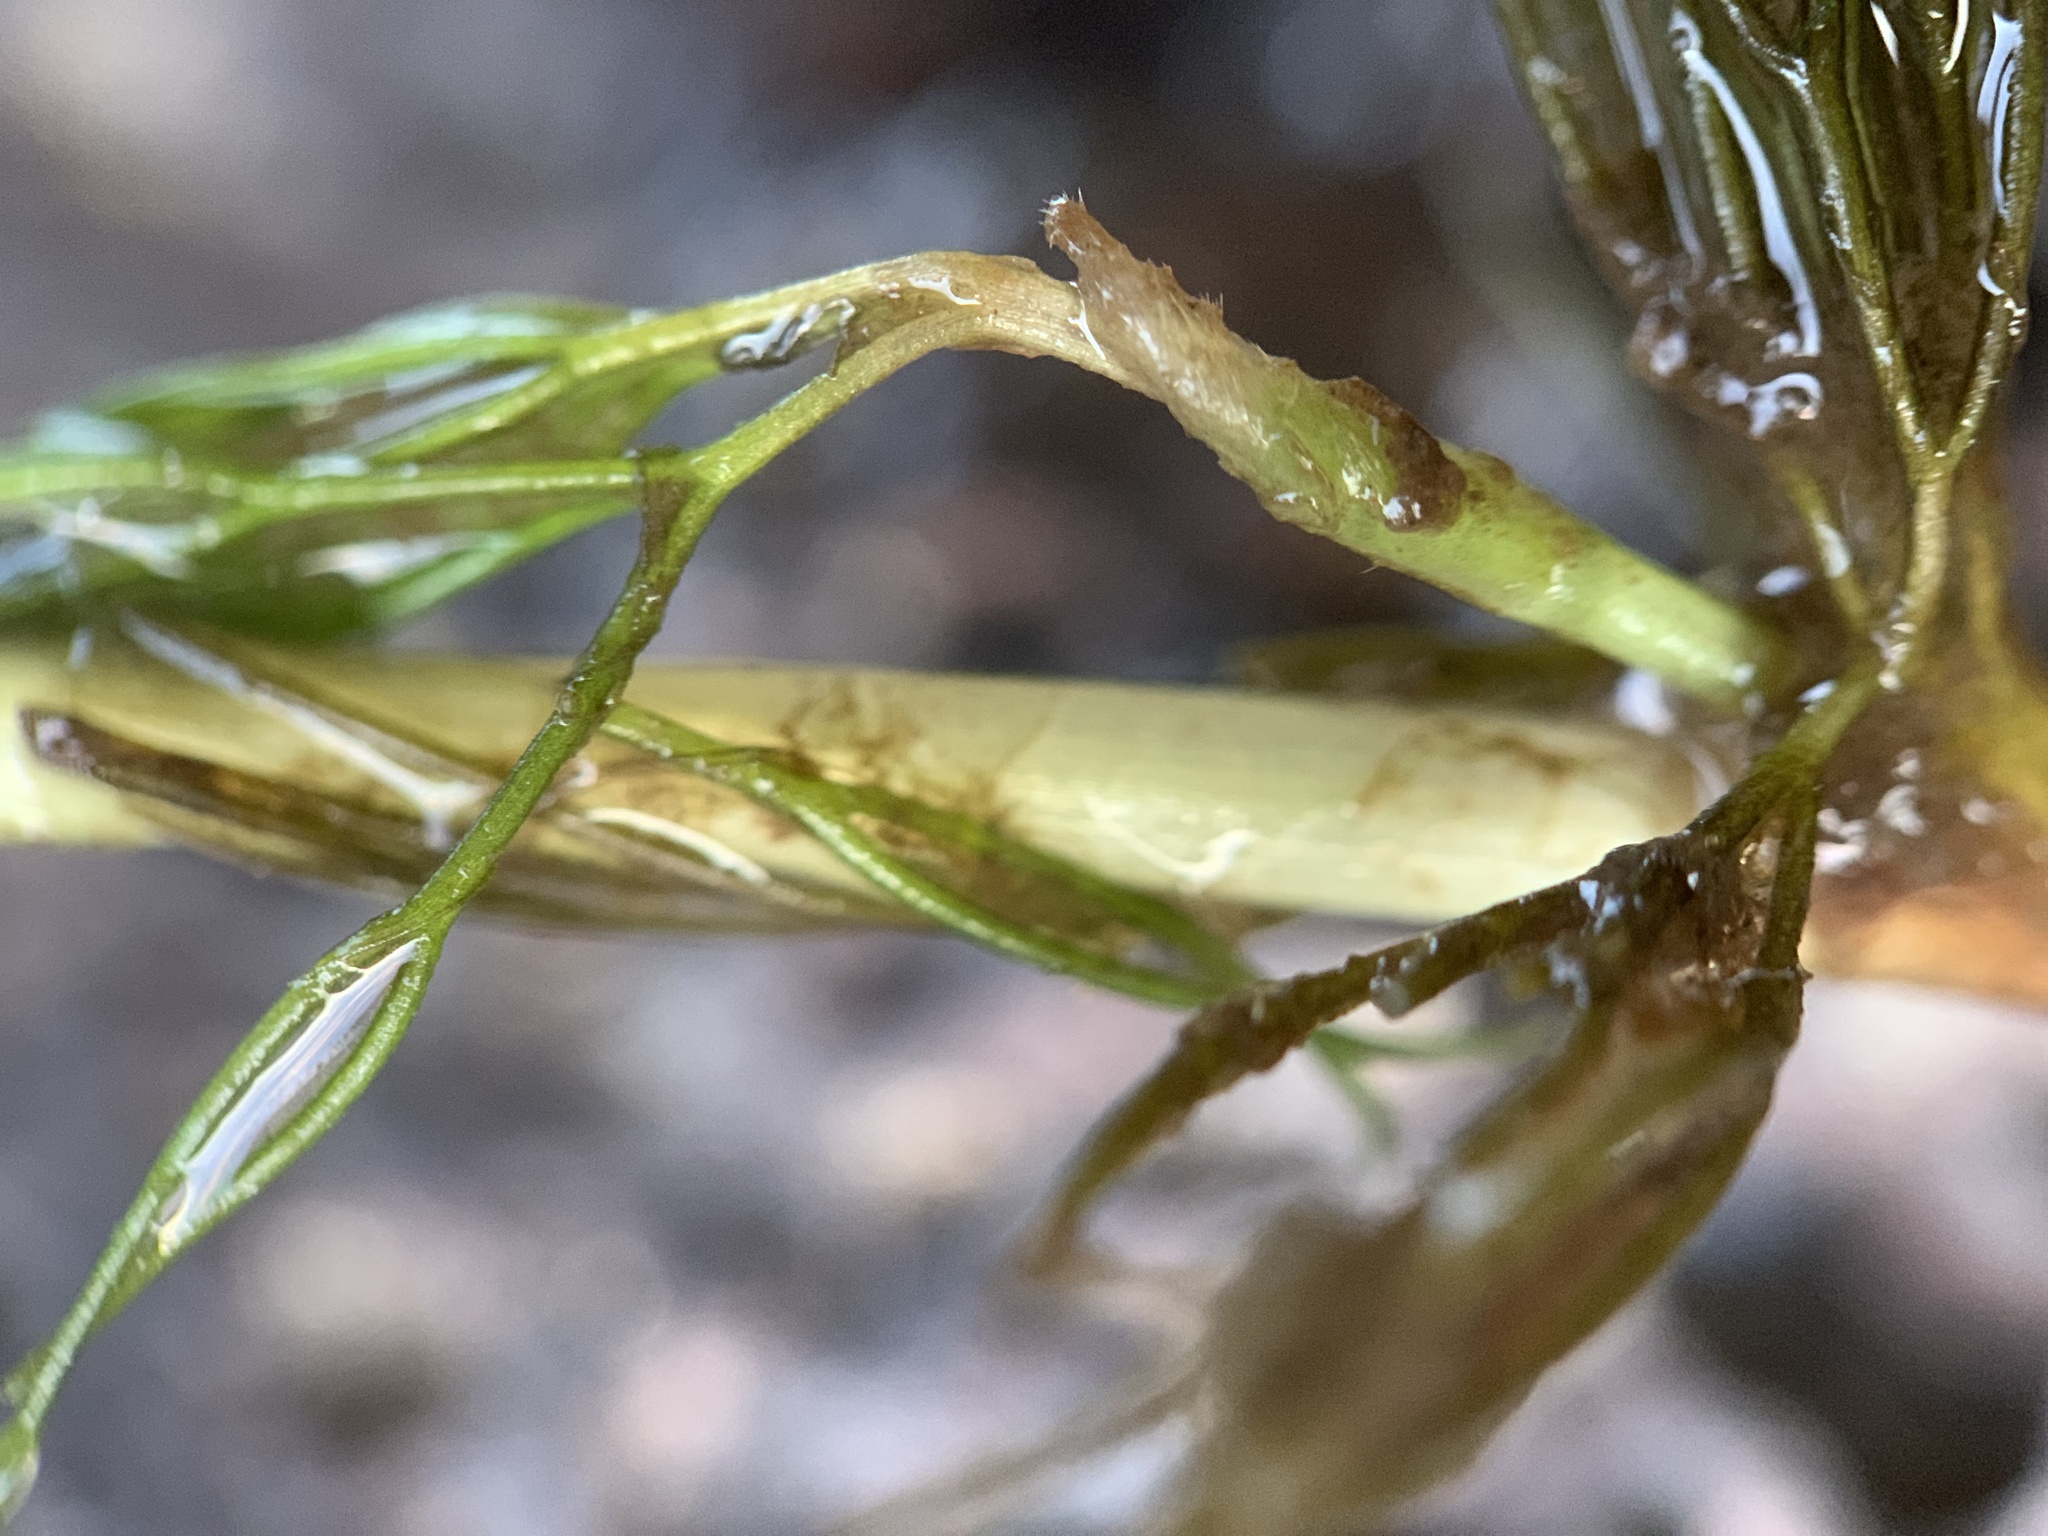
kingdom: Plantae
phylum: Tracheophyta
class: Magnoliopsida
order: Ranunculales
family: Ranunculaceae
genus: Ranunculus
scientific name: Ranunculus trichophyllus
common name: Thread-leaved water-crowfoot
